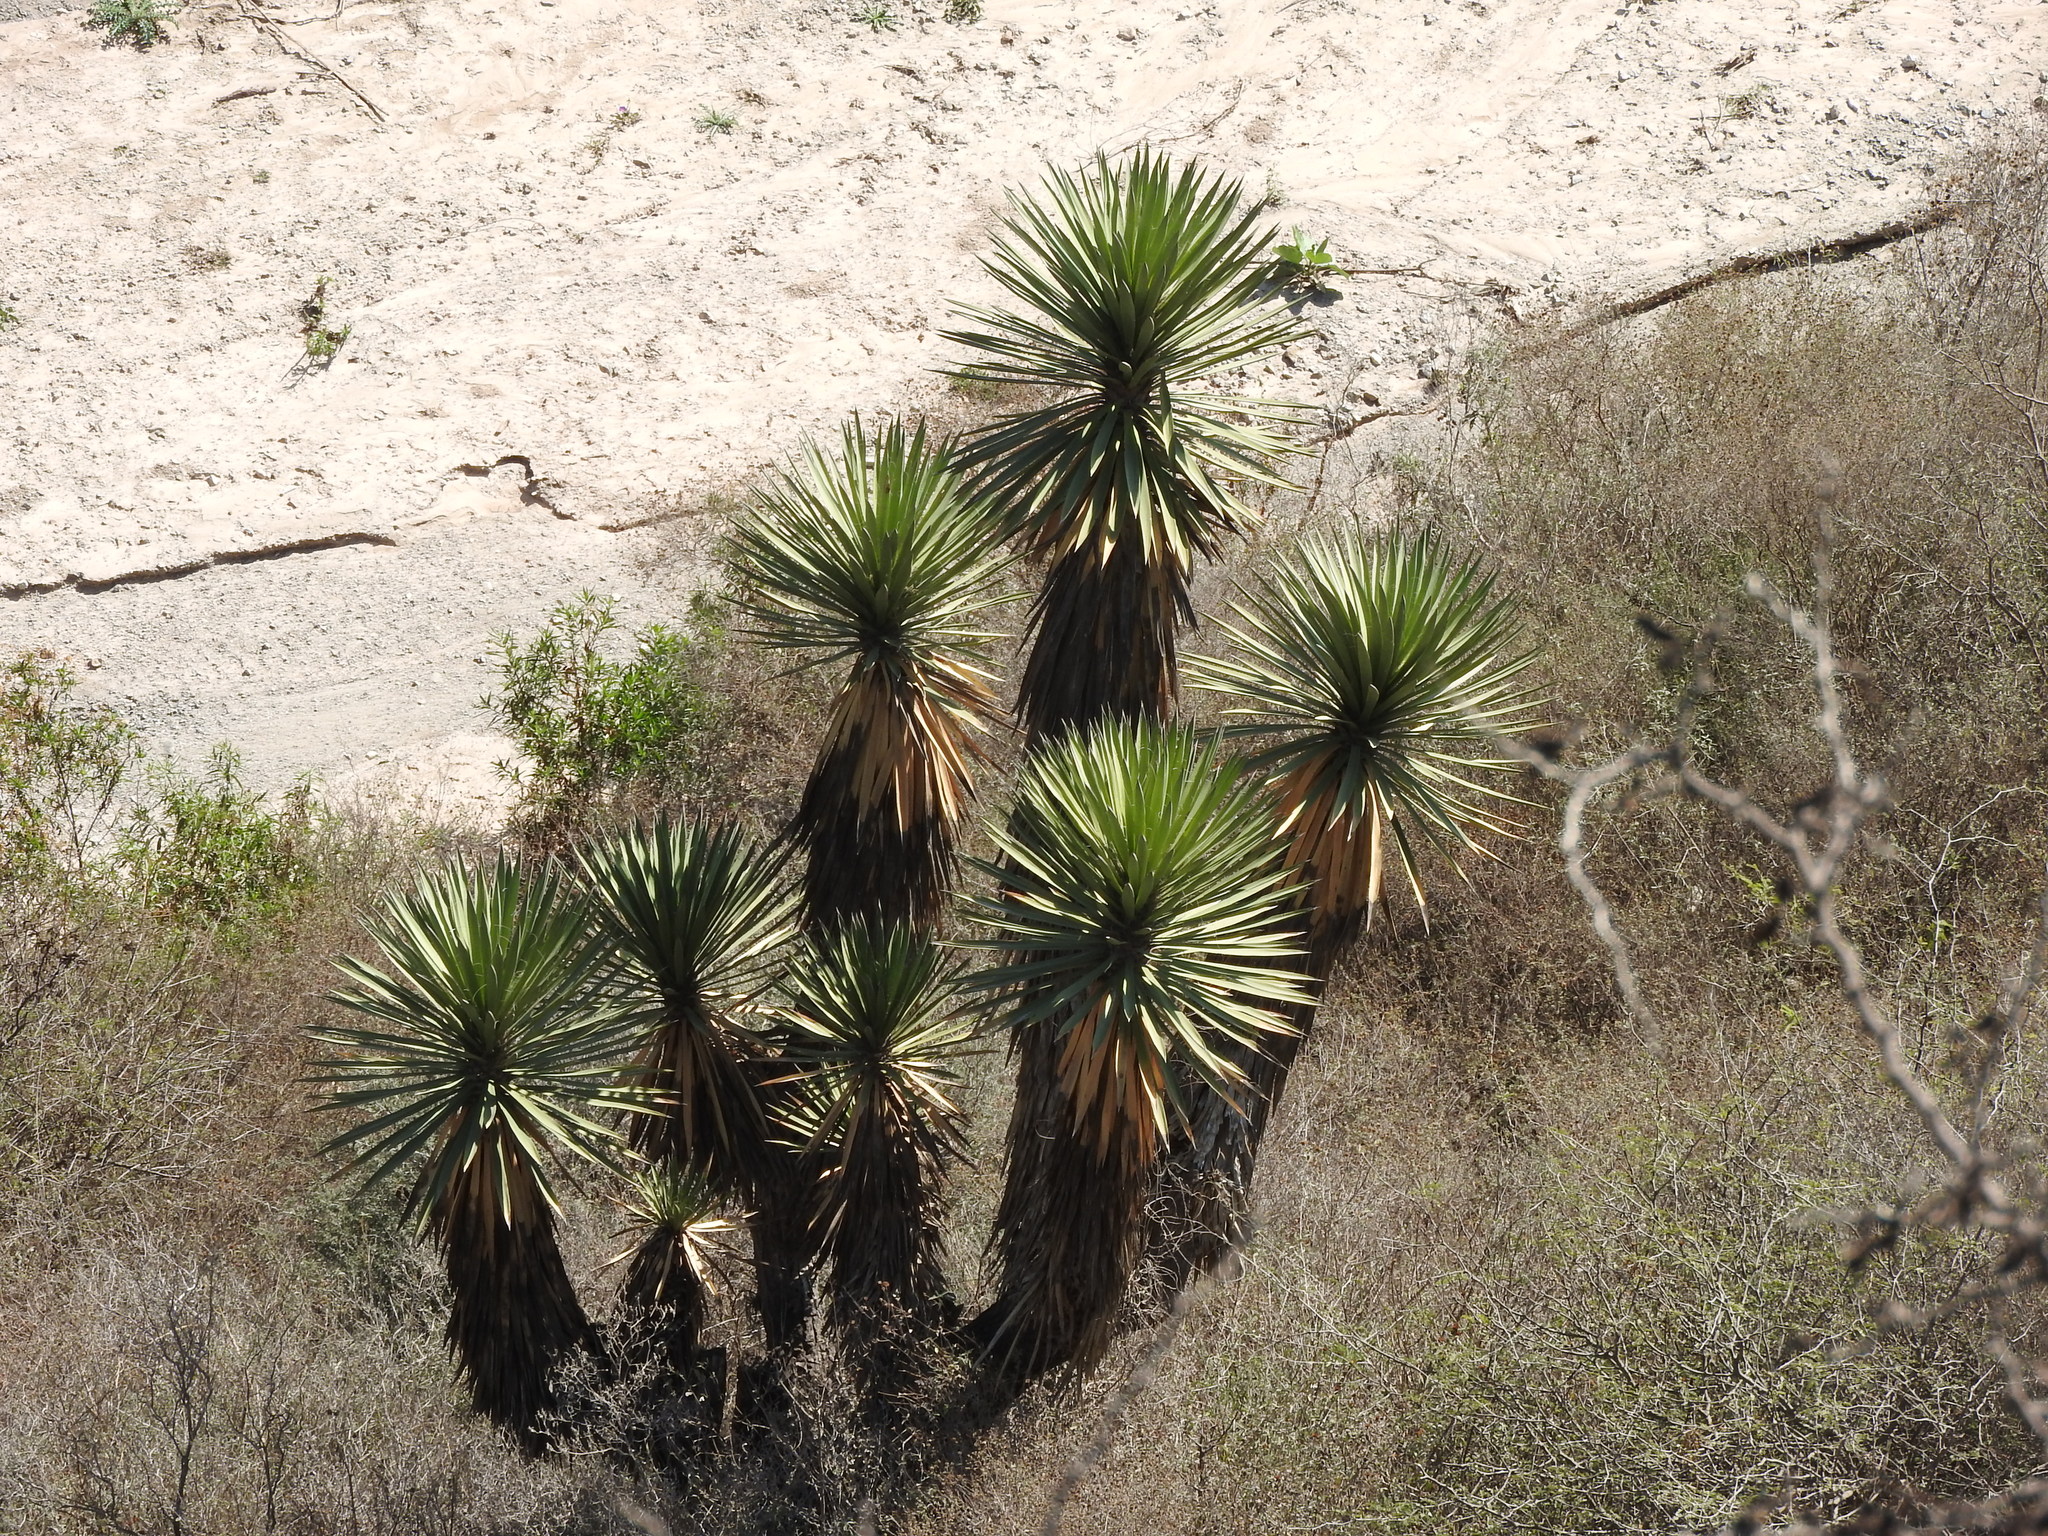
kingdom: Plantae
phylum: Tracheophyta
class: Liliopsida
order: Asparagales
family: Asparagaceae
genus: Yucca
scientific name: Yucca filifera
